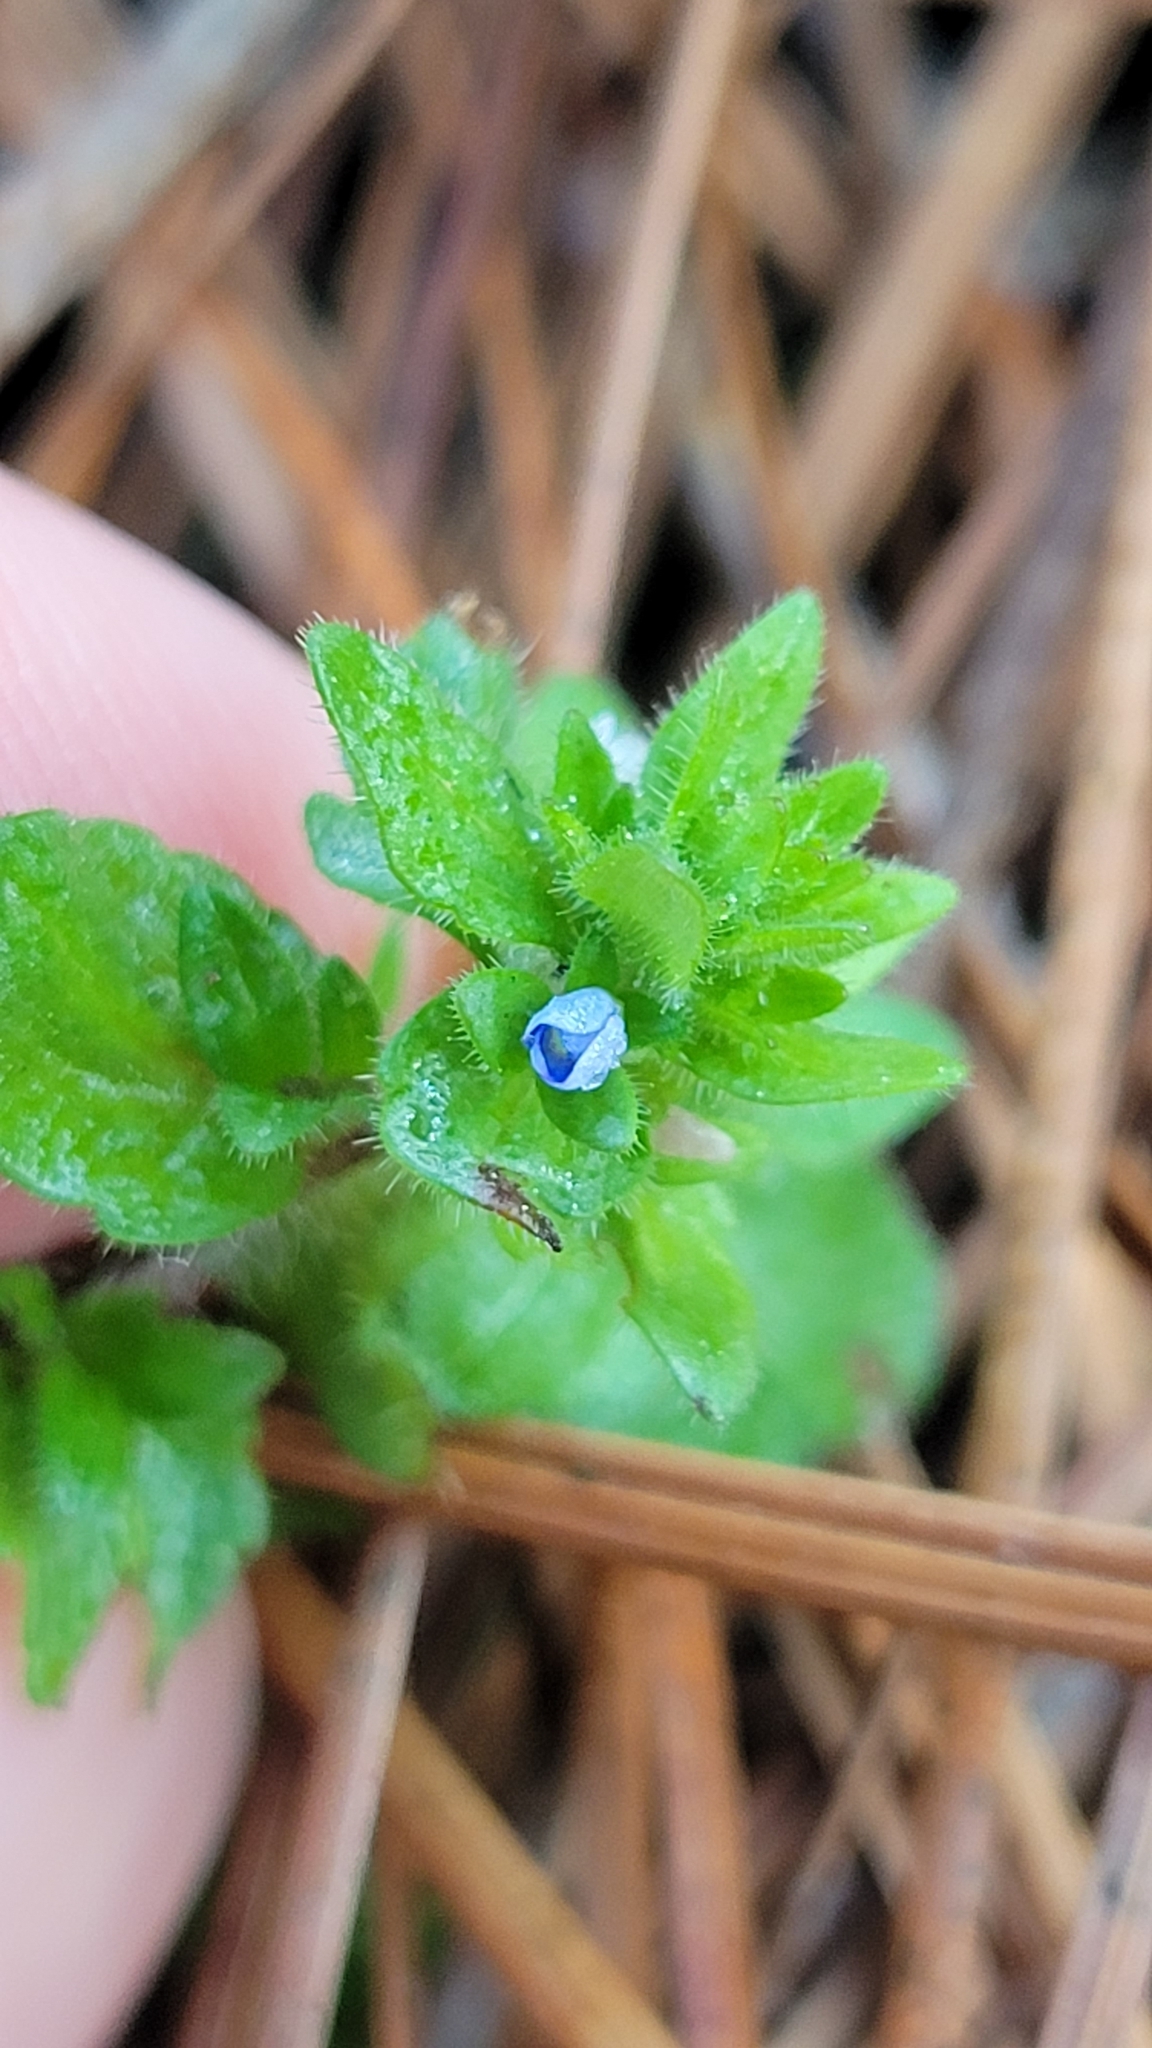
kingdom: Plantae
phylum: Tracheophyta
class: Magnoliopsida
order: Lamiales
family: Plantaginaceae
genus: Veronica
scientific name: Veronica arvensis
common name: Corn speedwell
